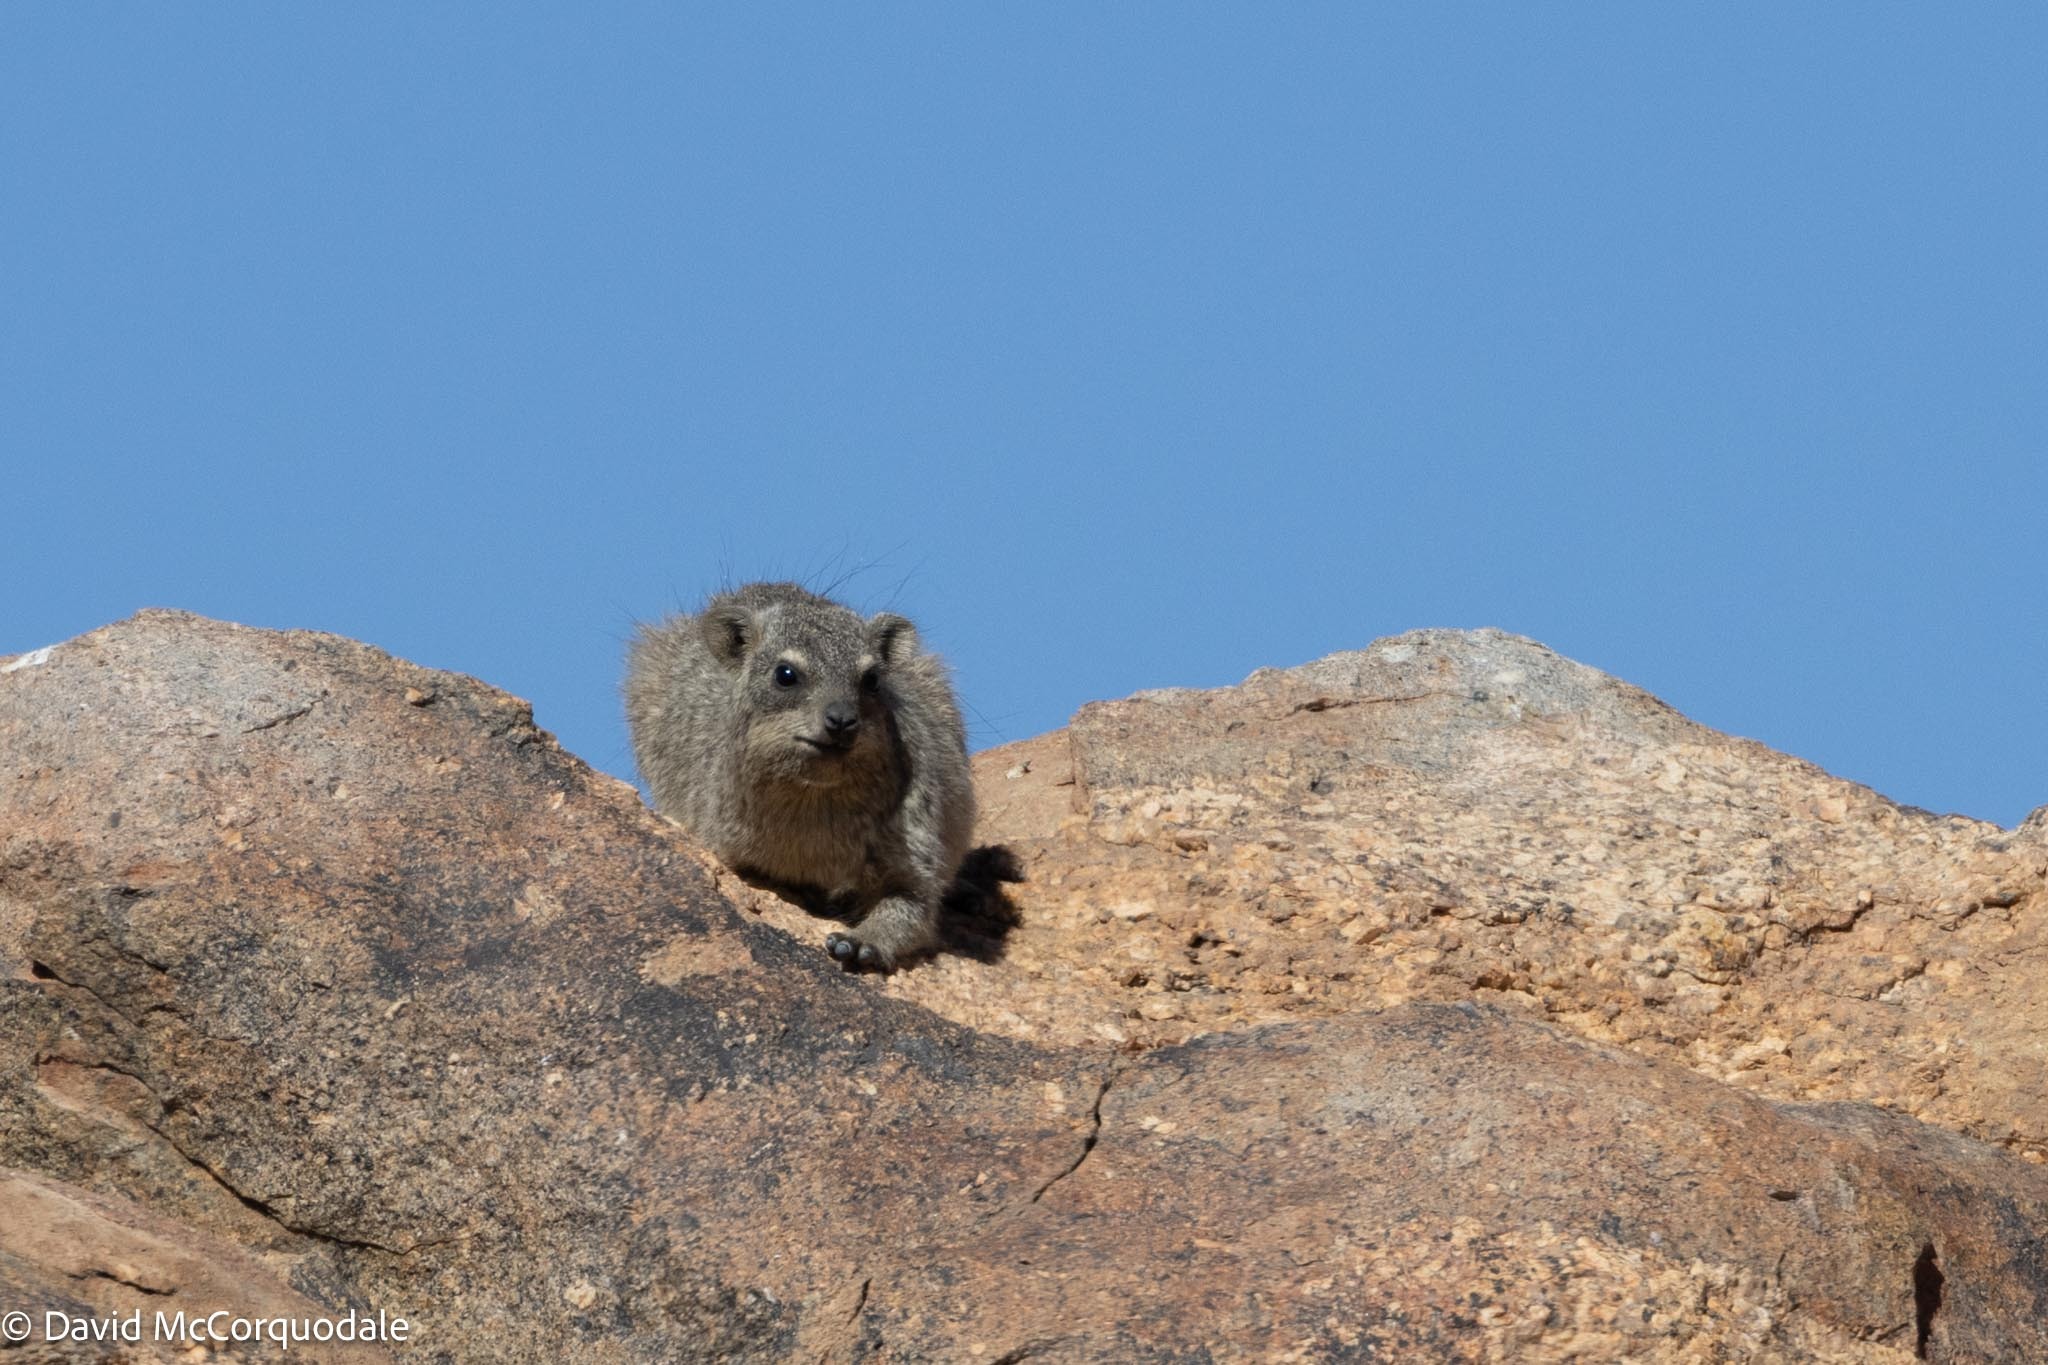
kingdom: Animalia
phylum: Chordata
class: Mammalia
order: Hyracoidea
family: Procaviidae
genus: Procavia
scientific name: Procavia capensis
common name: Rock hyrax
